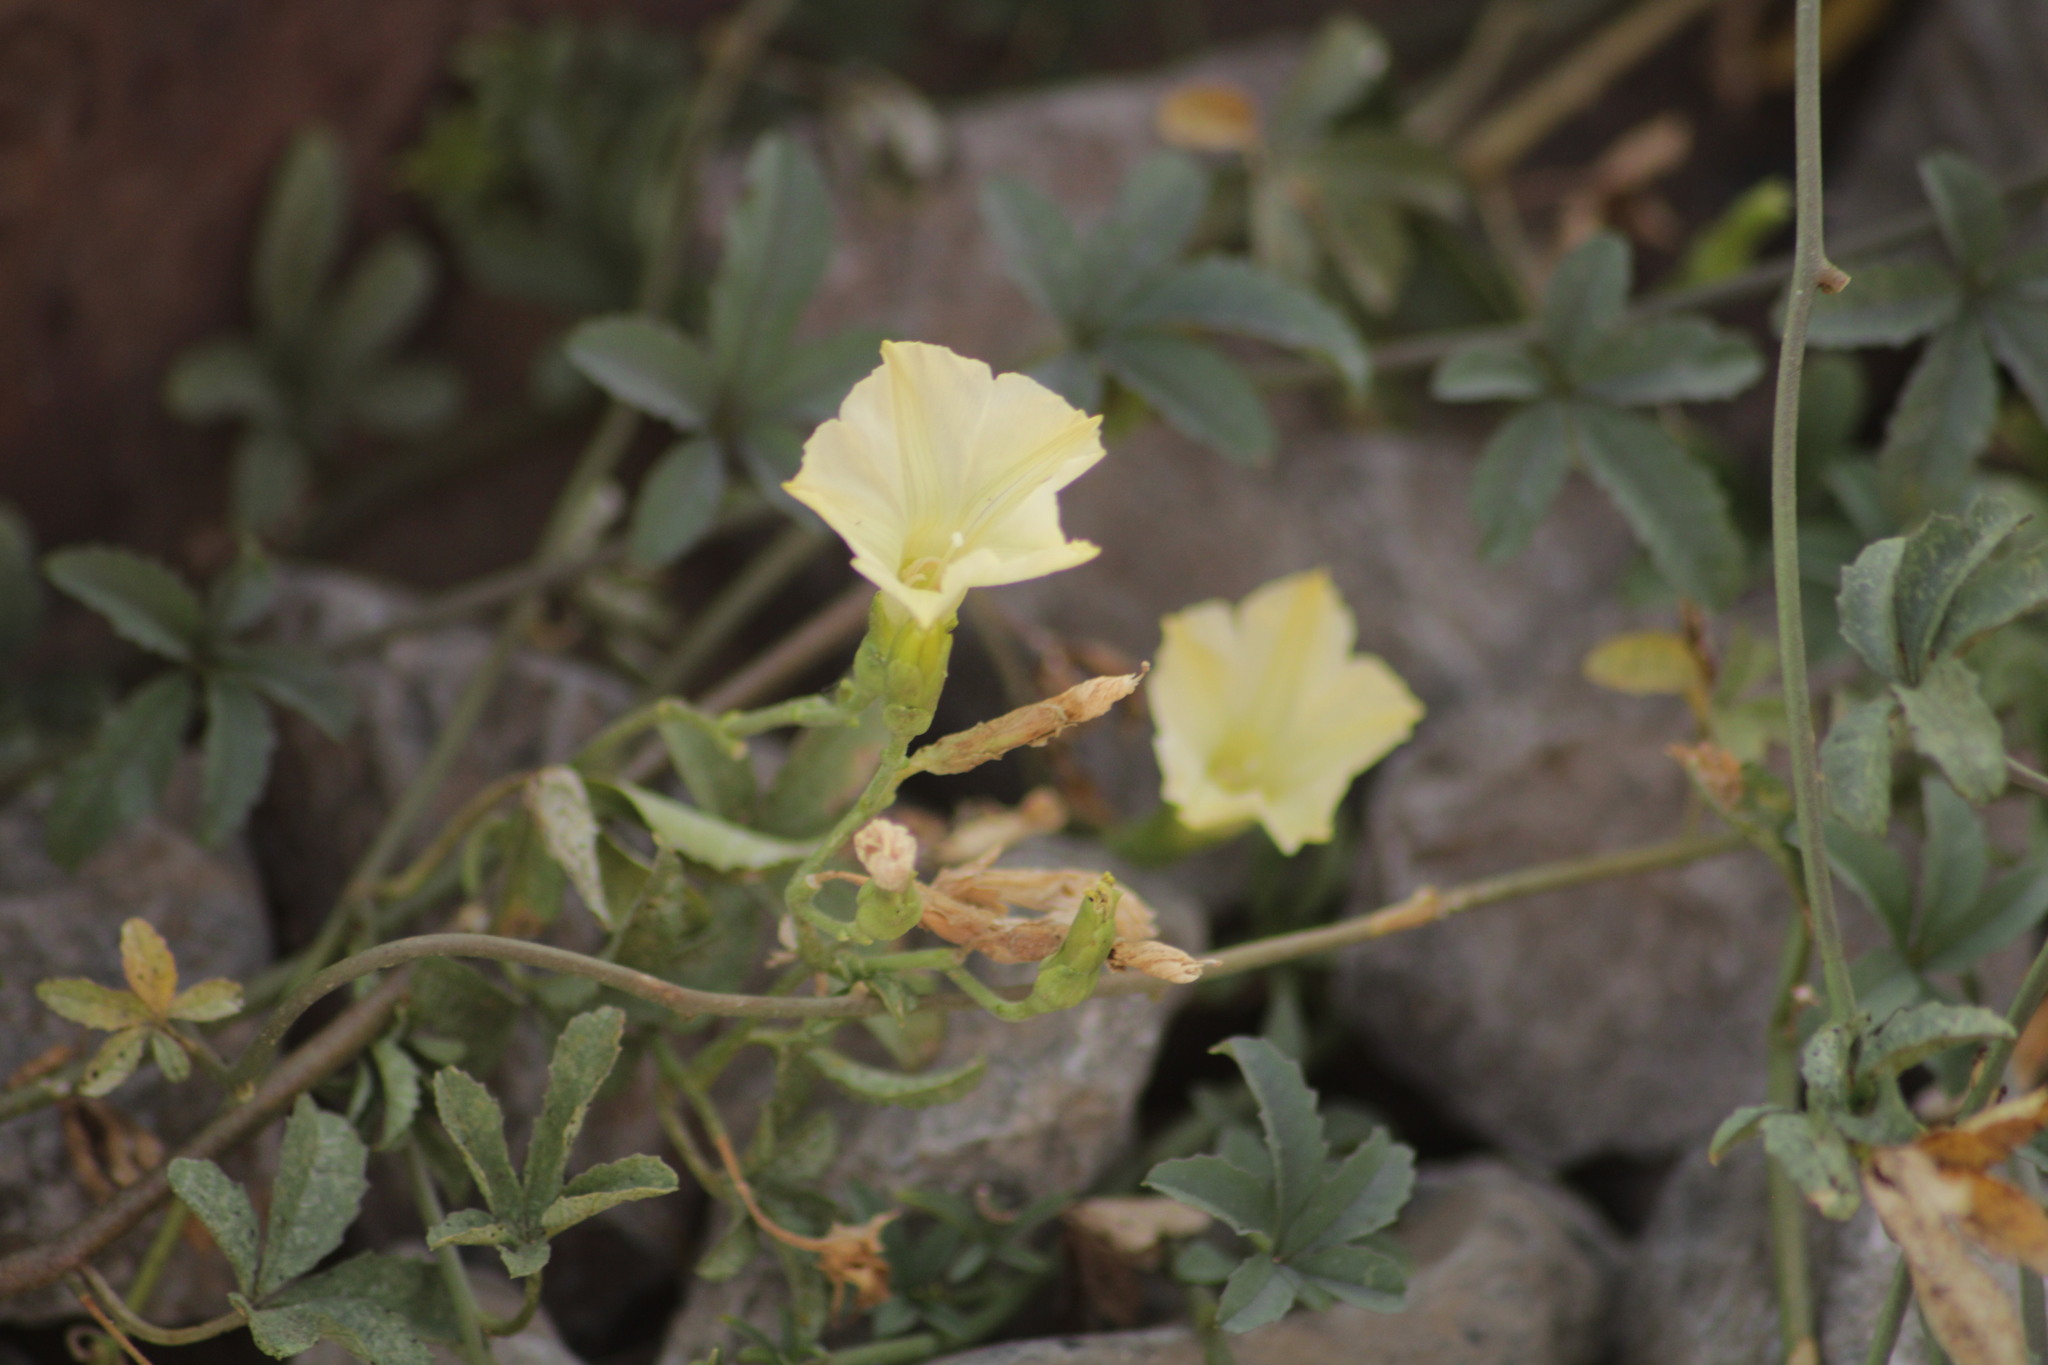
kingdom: Plantae
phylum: Tracheophyta
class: Magnoliopsida
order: Solanales
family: Convolvulaceae
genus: Distimake
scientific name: Distimake quinquefolius
